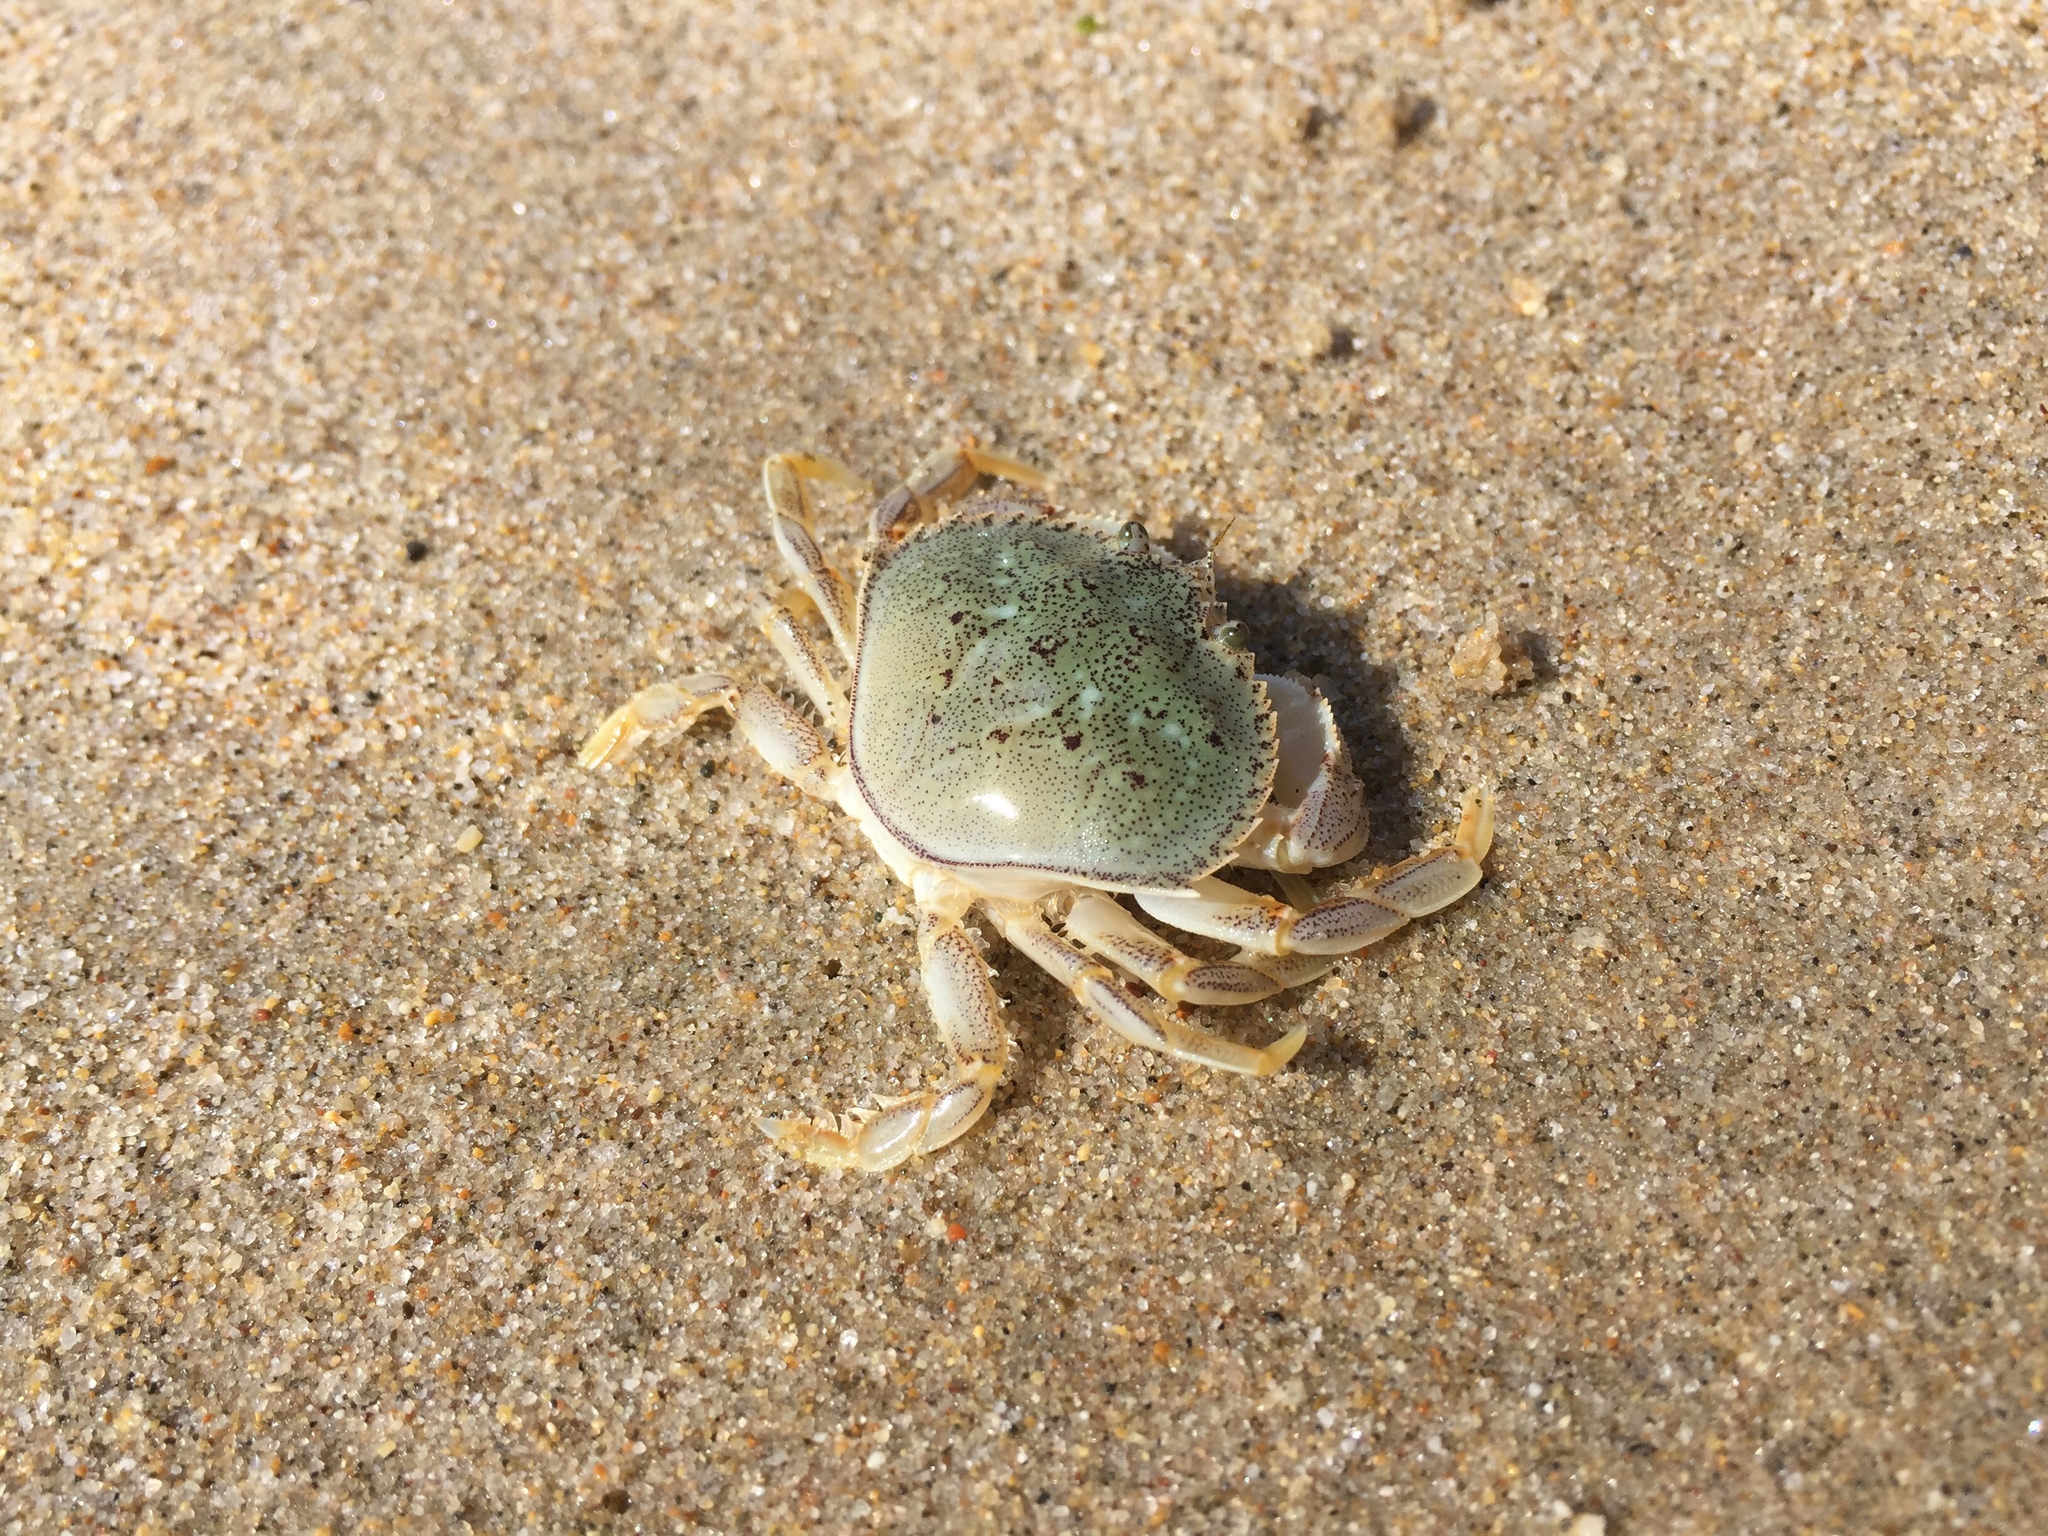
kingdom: Animalia
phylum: Arthropoda
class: Malacostraca
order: Decapoda
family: Cancridae
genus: Metacarcinus
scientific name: Metacarcinus magister
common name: Californian crab
